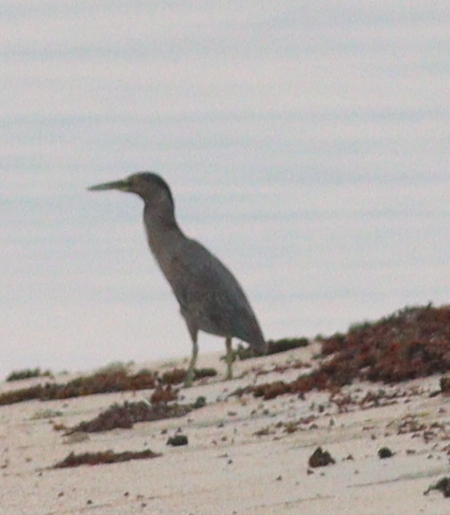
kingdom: Animalia
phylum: Chordata
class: Aves
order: Pelecaniformes
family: Ardeidae
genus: Butorides
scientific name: Butorides striata
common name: Striated heron
